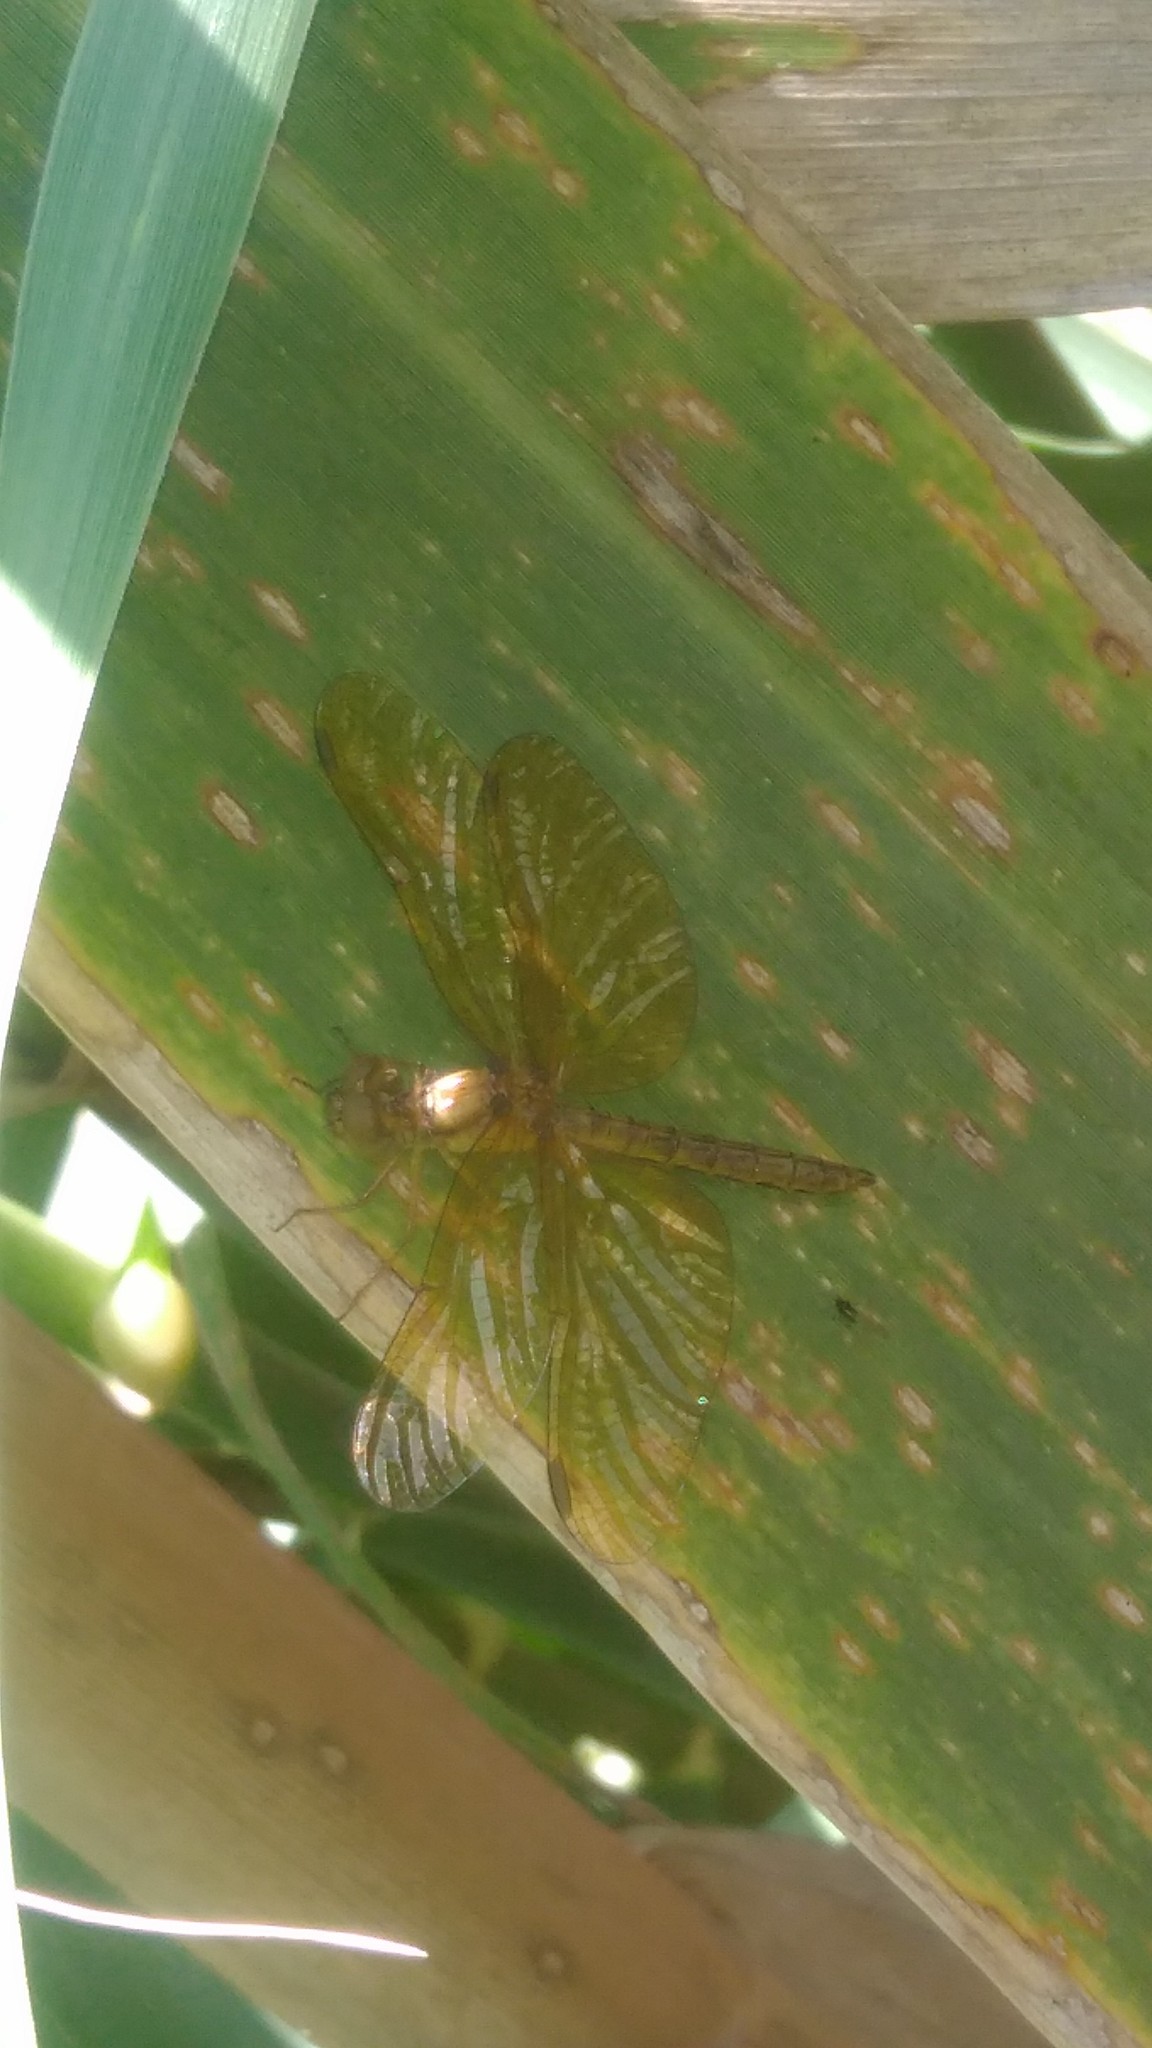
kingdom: Animalia
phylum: Arthropoda
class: Insecta
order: Odonata
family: Libellulidae
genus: Perithemis
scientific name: Perithemis icteroptera
